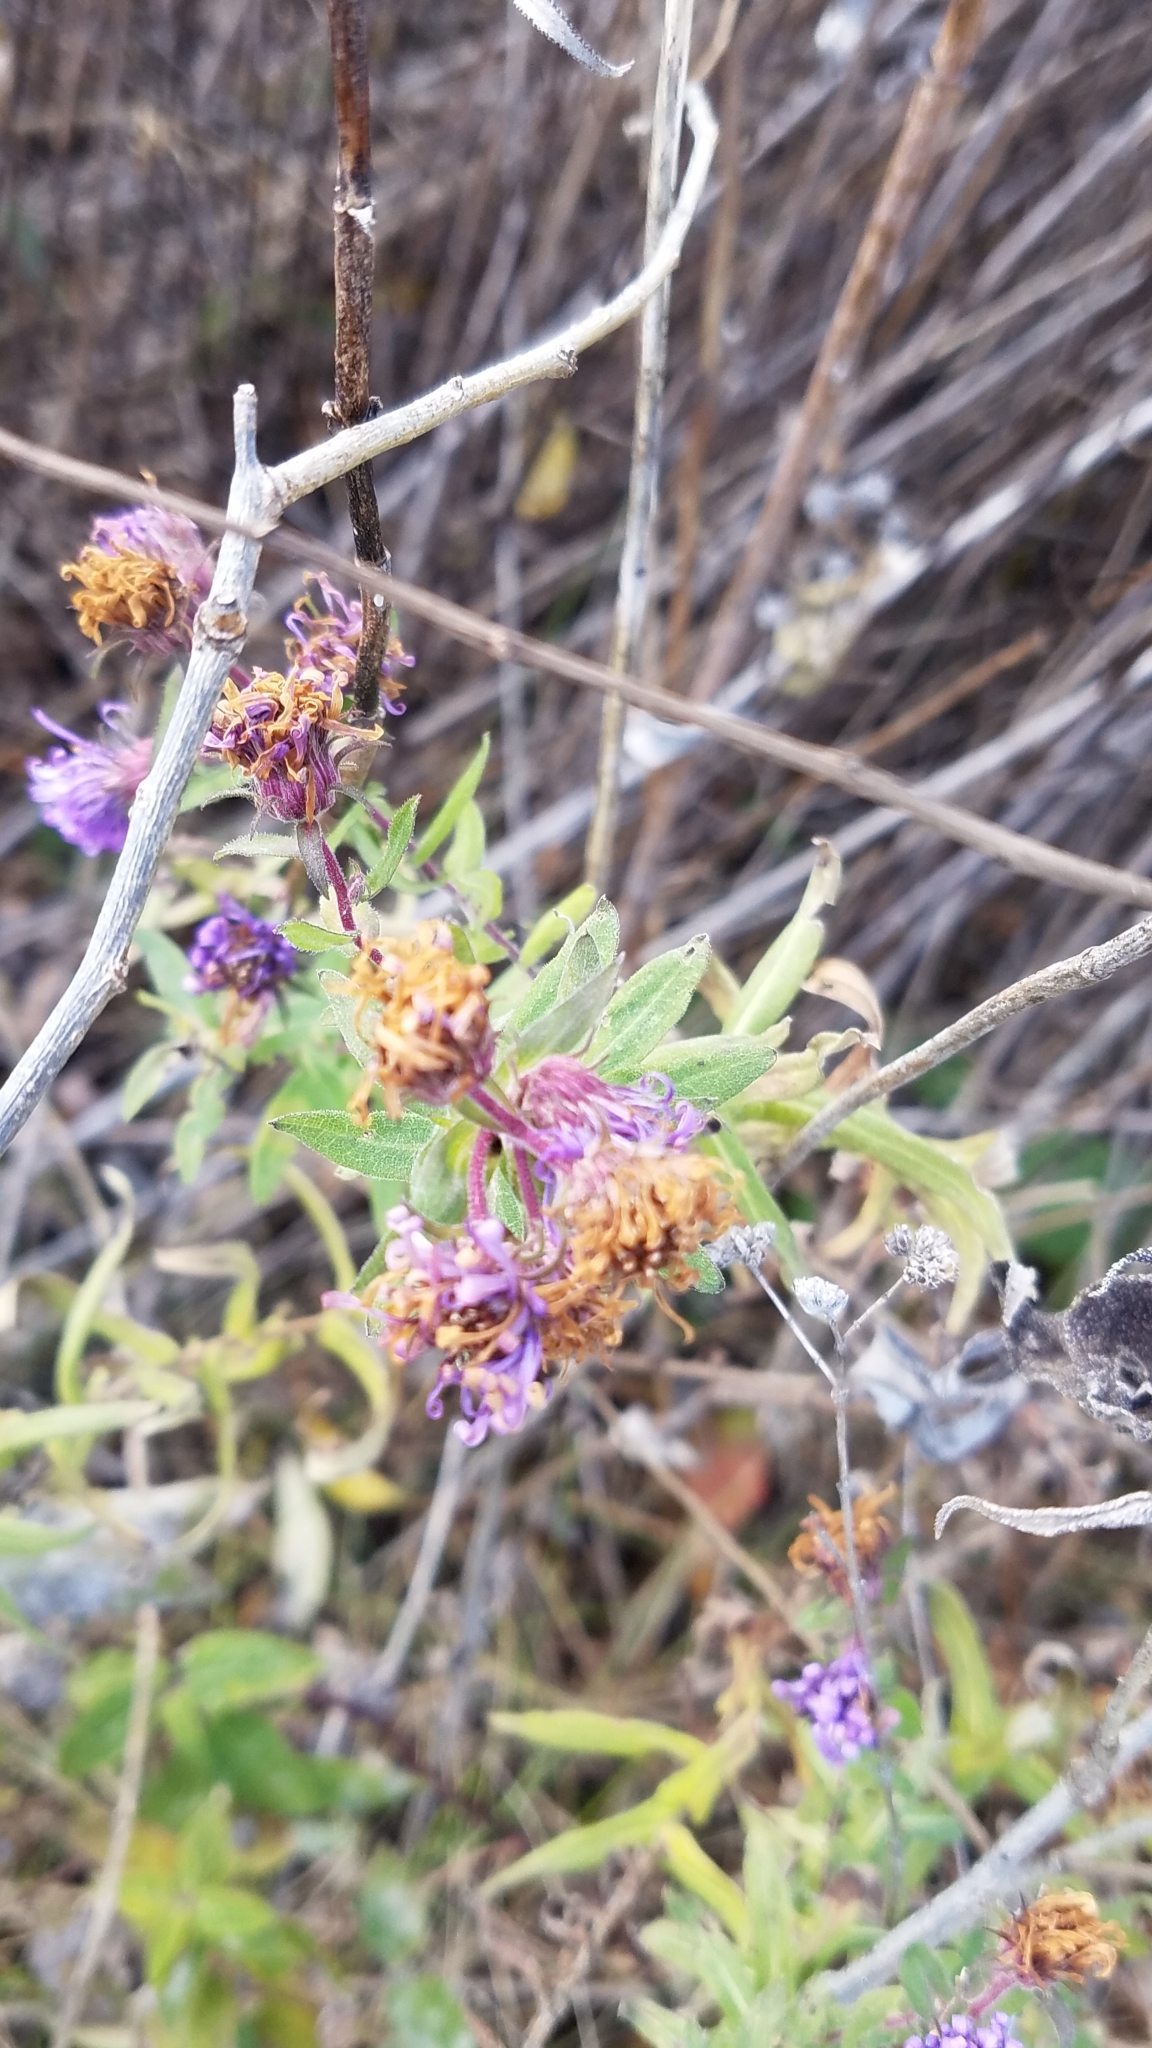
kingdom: Plantae
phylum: Tracheophyta
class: Magnoliopsida
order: Asterales
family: Asteraceae
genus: Symphyotrichum
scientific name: Symphyotrichum novae-angliae
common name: Michaelmas daisy
